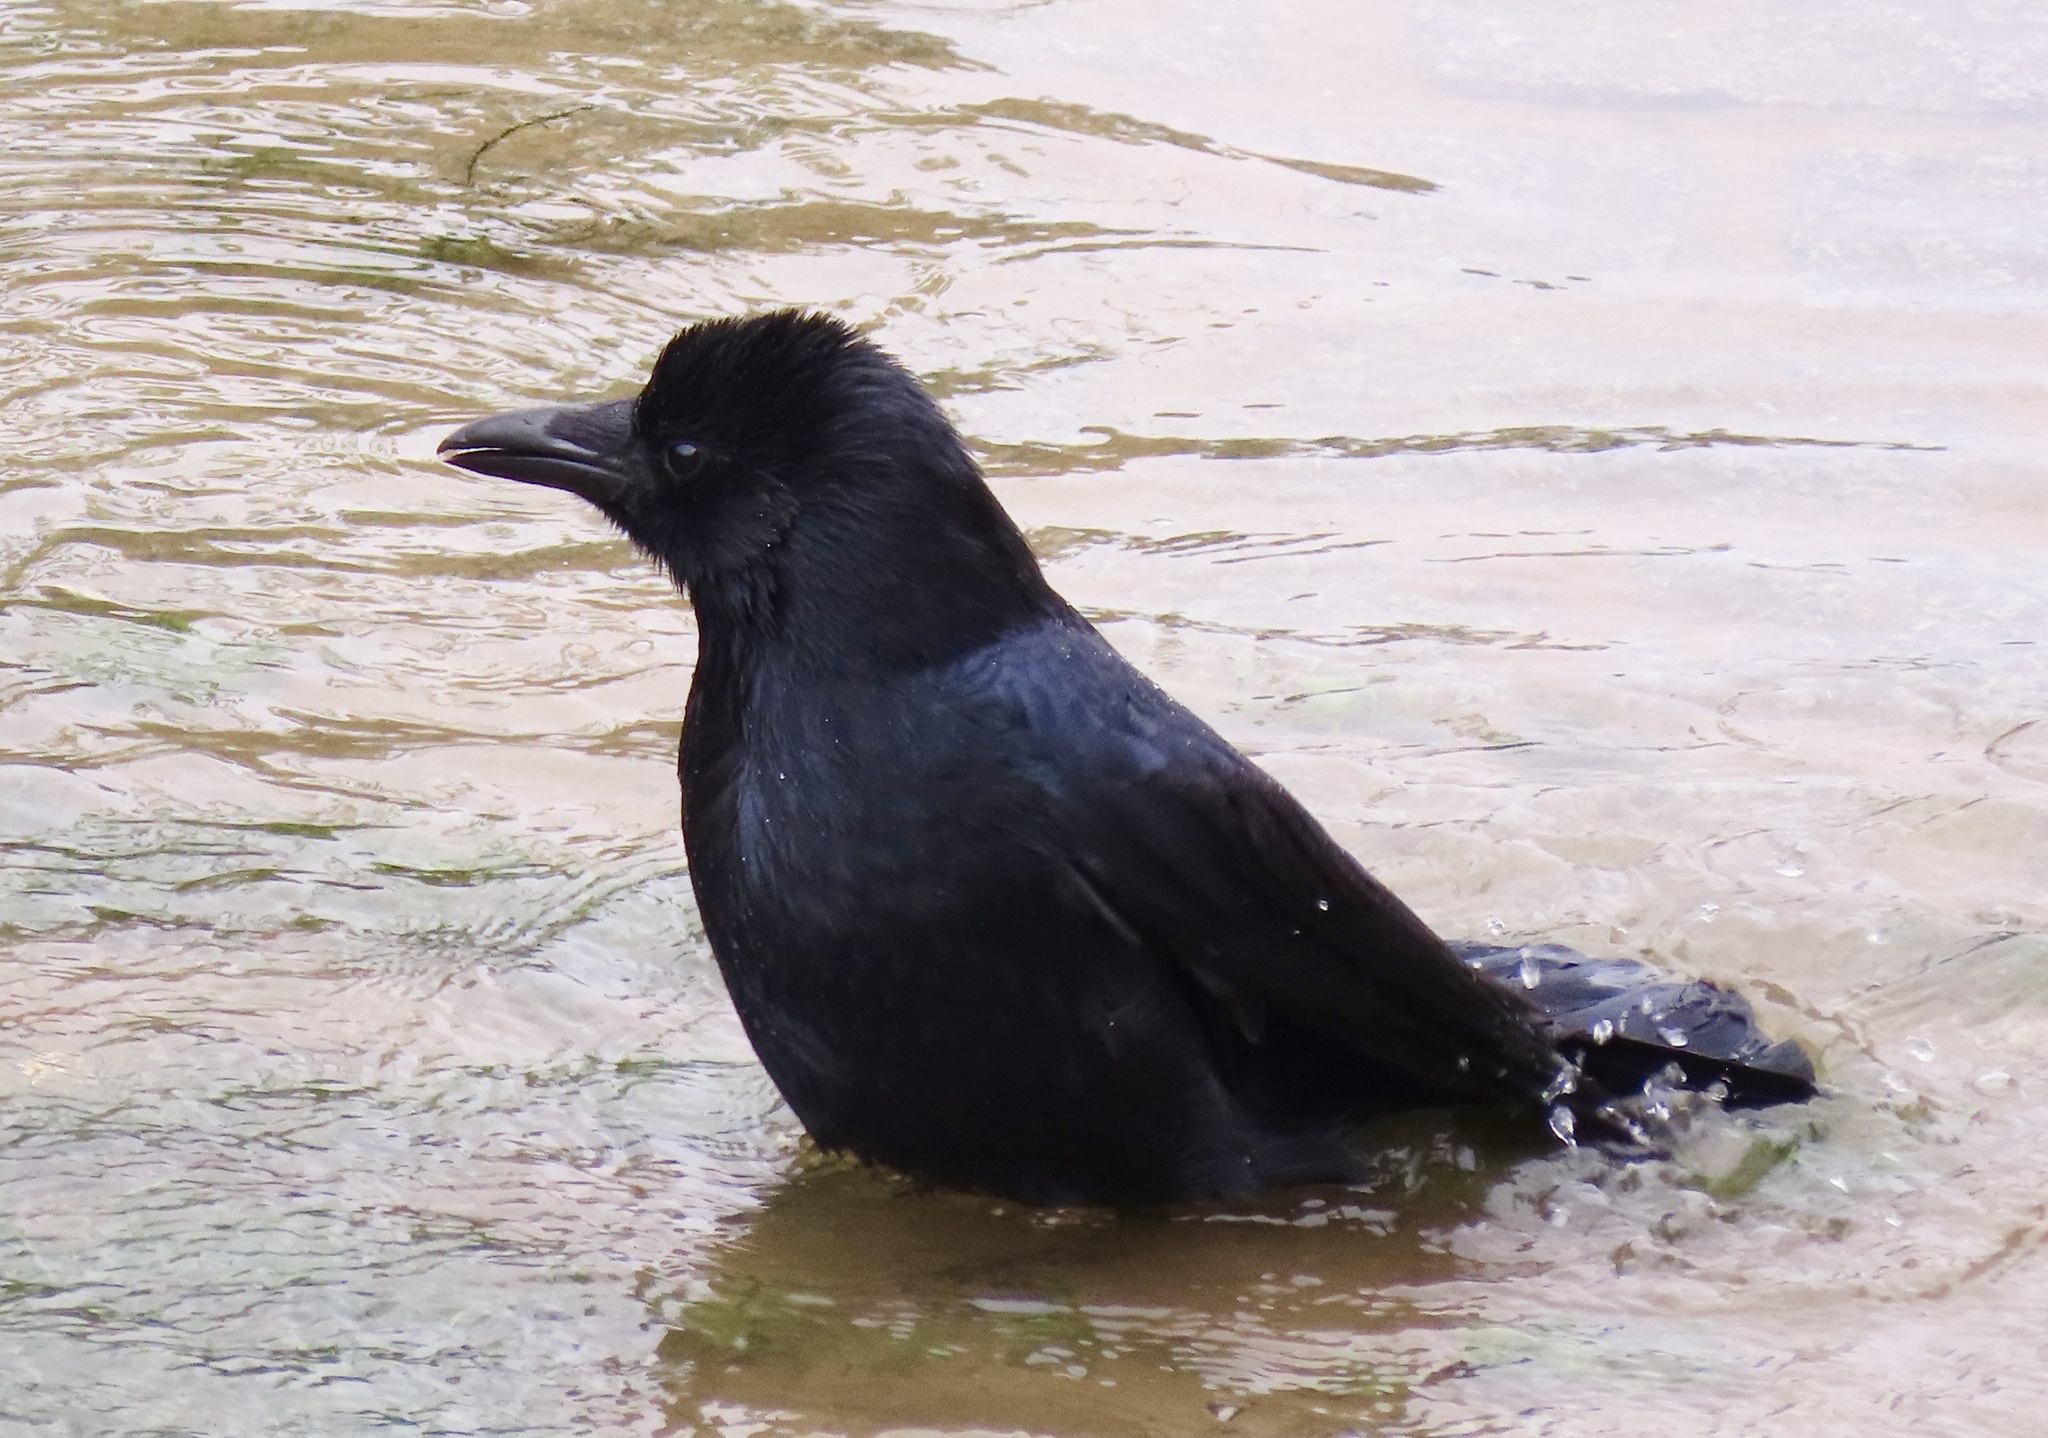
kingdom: Animalia
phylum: Chordata
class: Aves
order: Passeriformes
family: Corvidae
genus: Corvus
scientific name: Corvus corone
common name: Carrion crow
